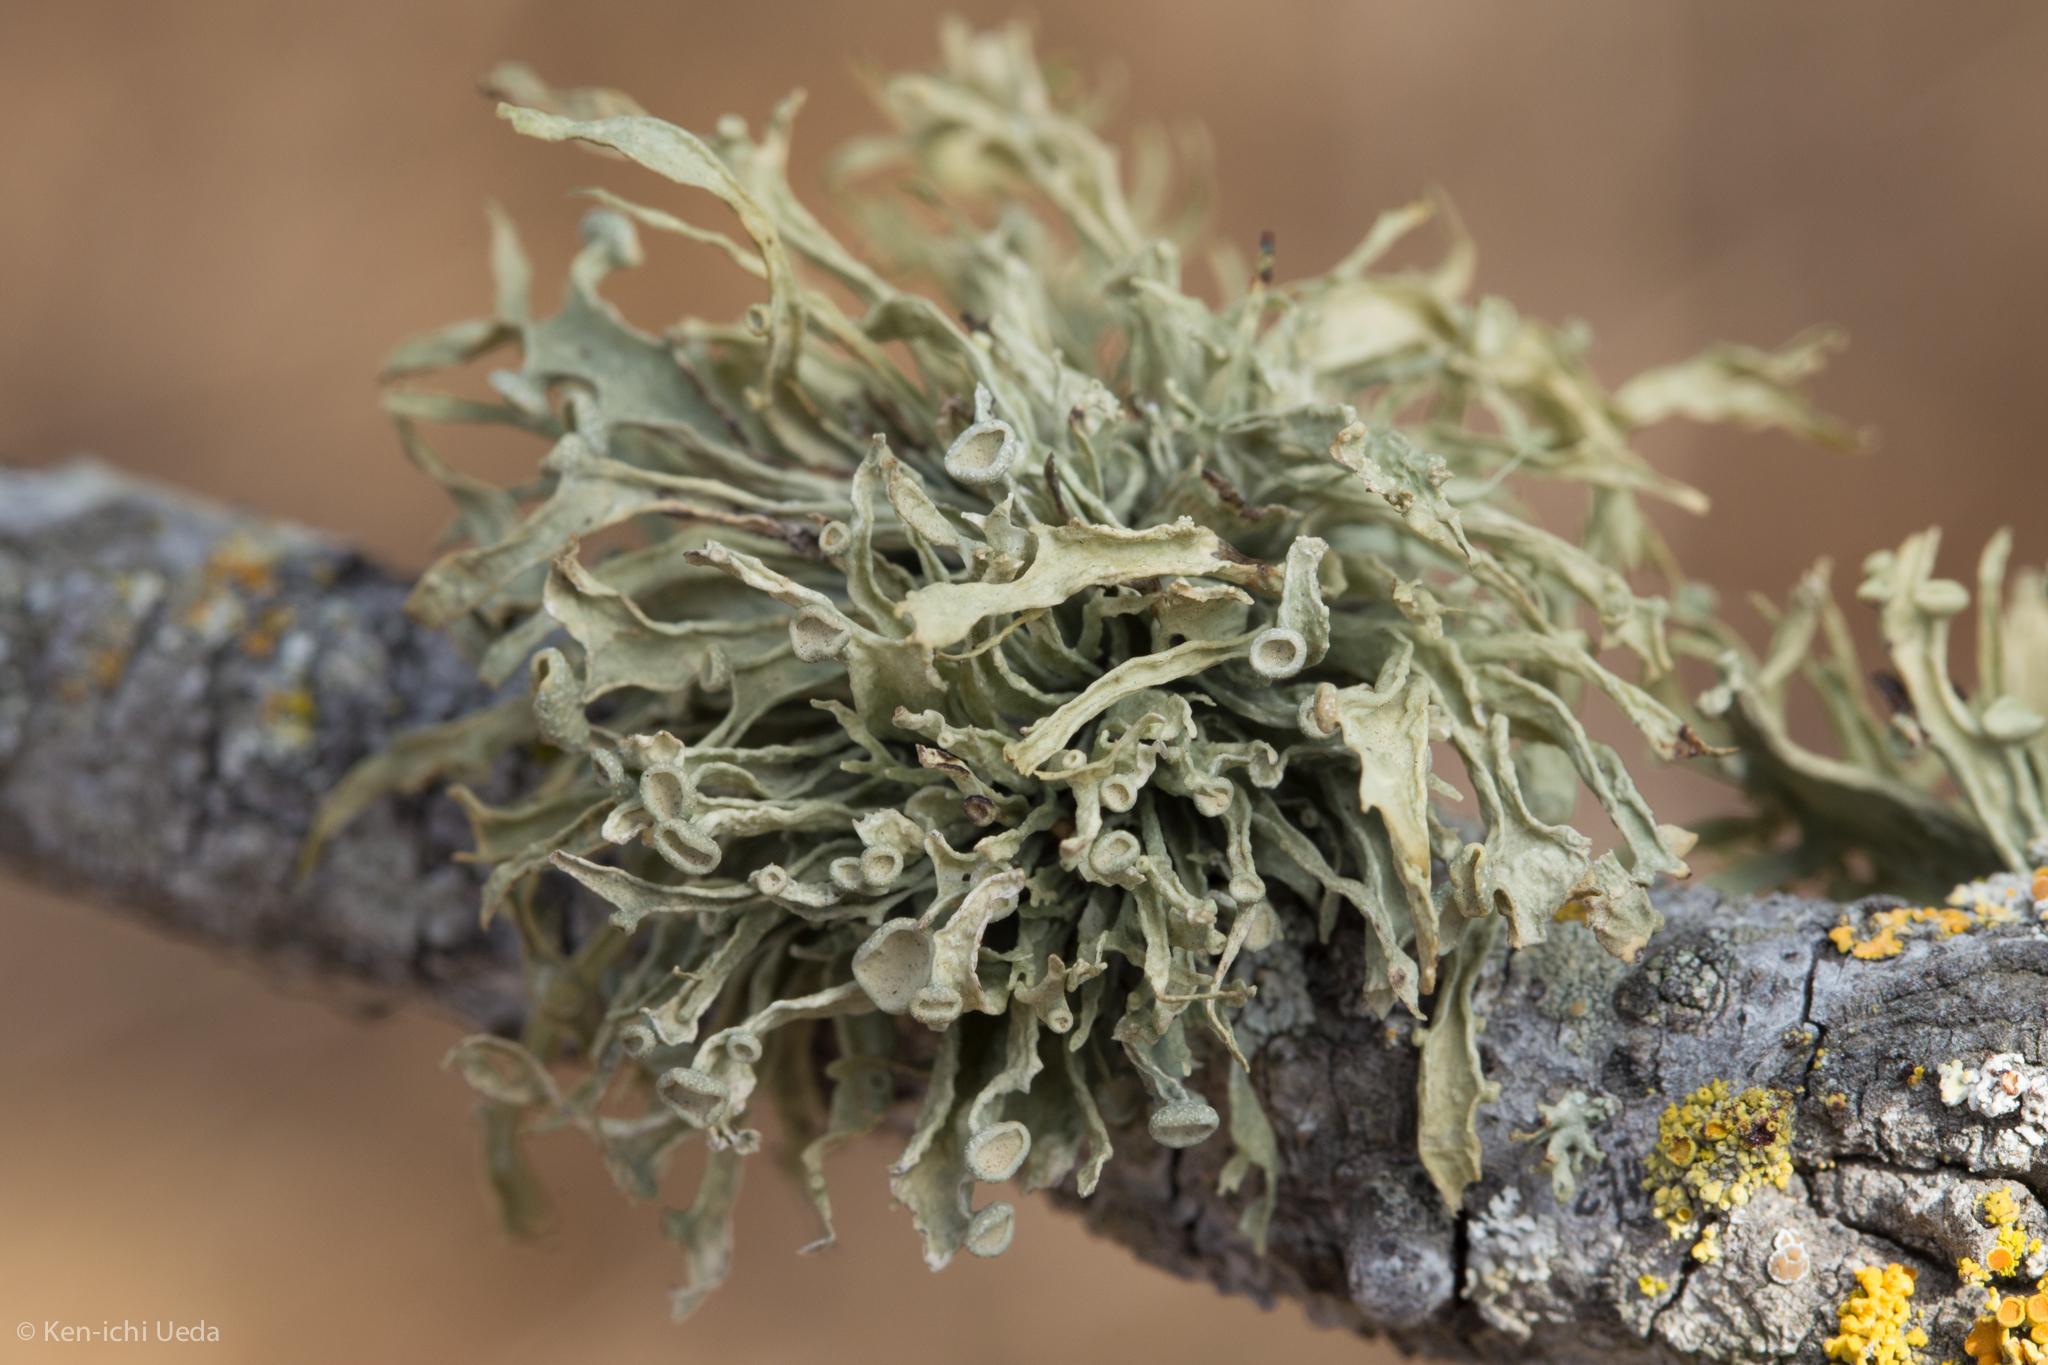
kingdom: Fungi
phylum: Ascomycota
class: Lecanoromycetes
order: Lecanorales
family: Ramalinaceae
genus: Ramalina
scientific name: Ramalina leptocarpha
